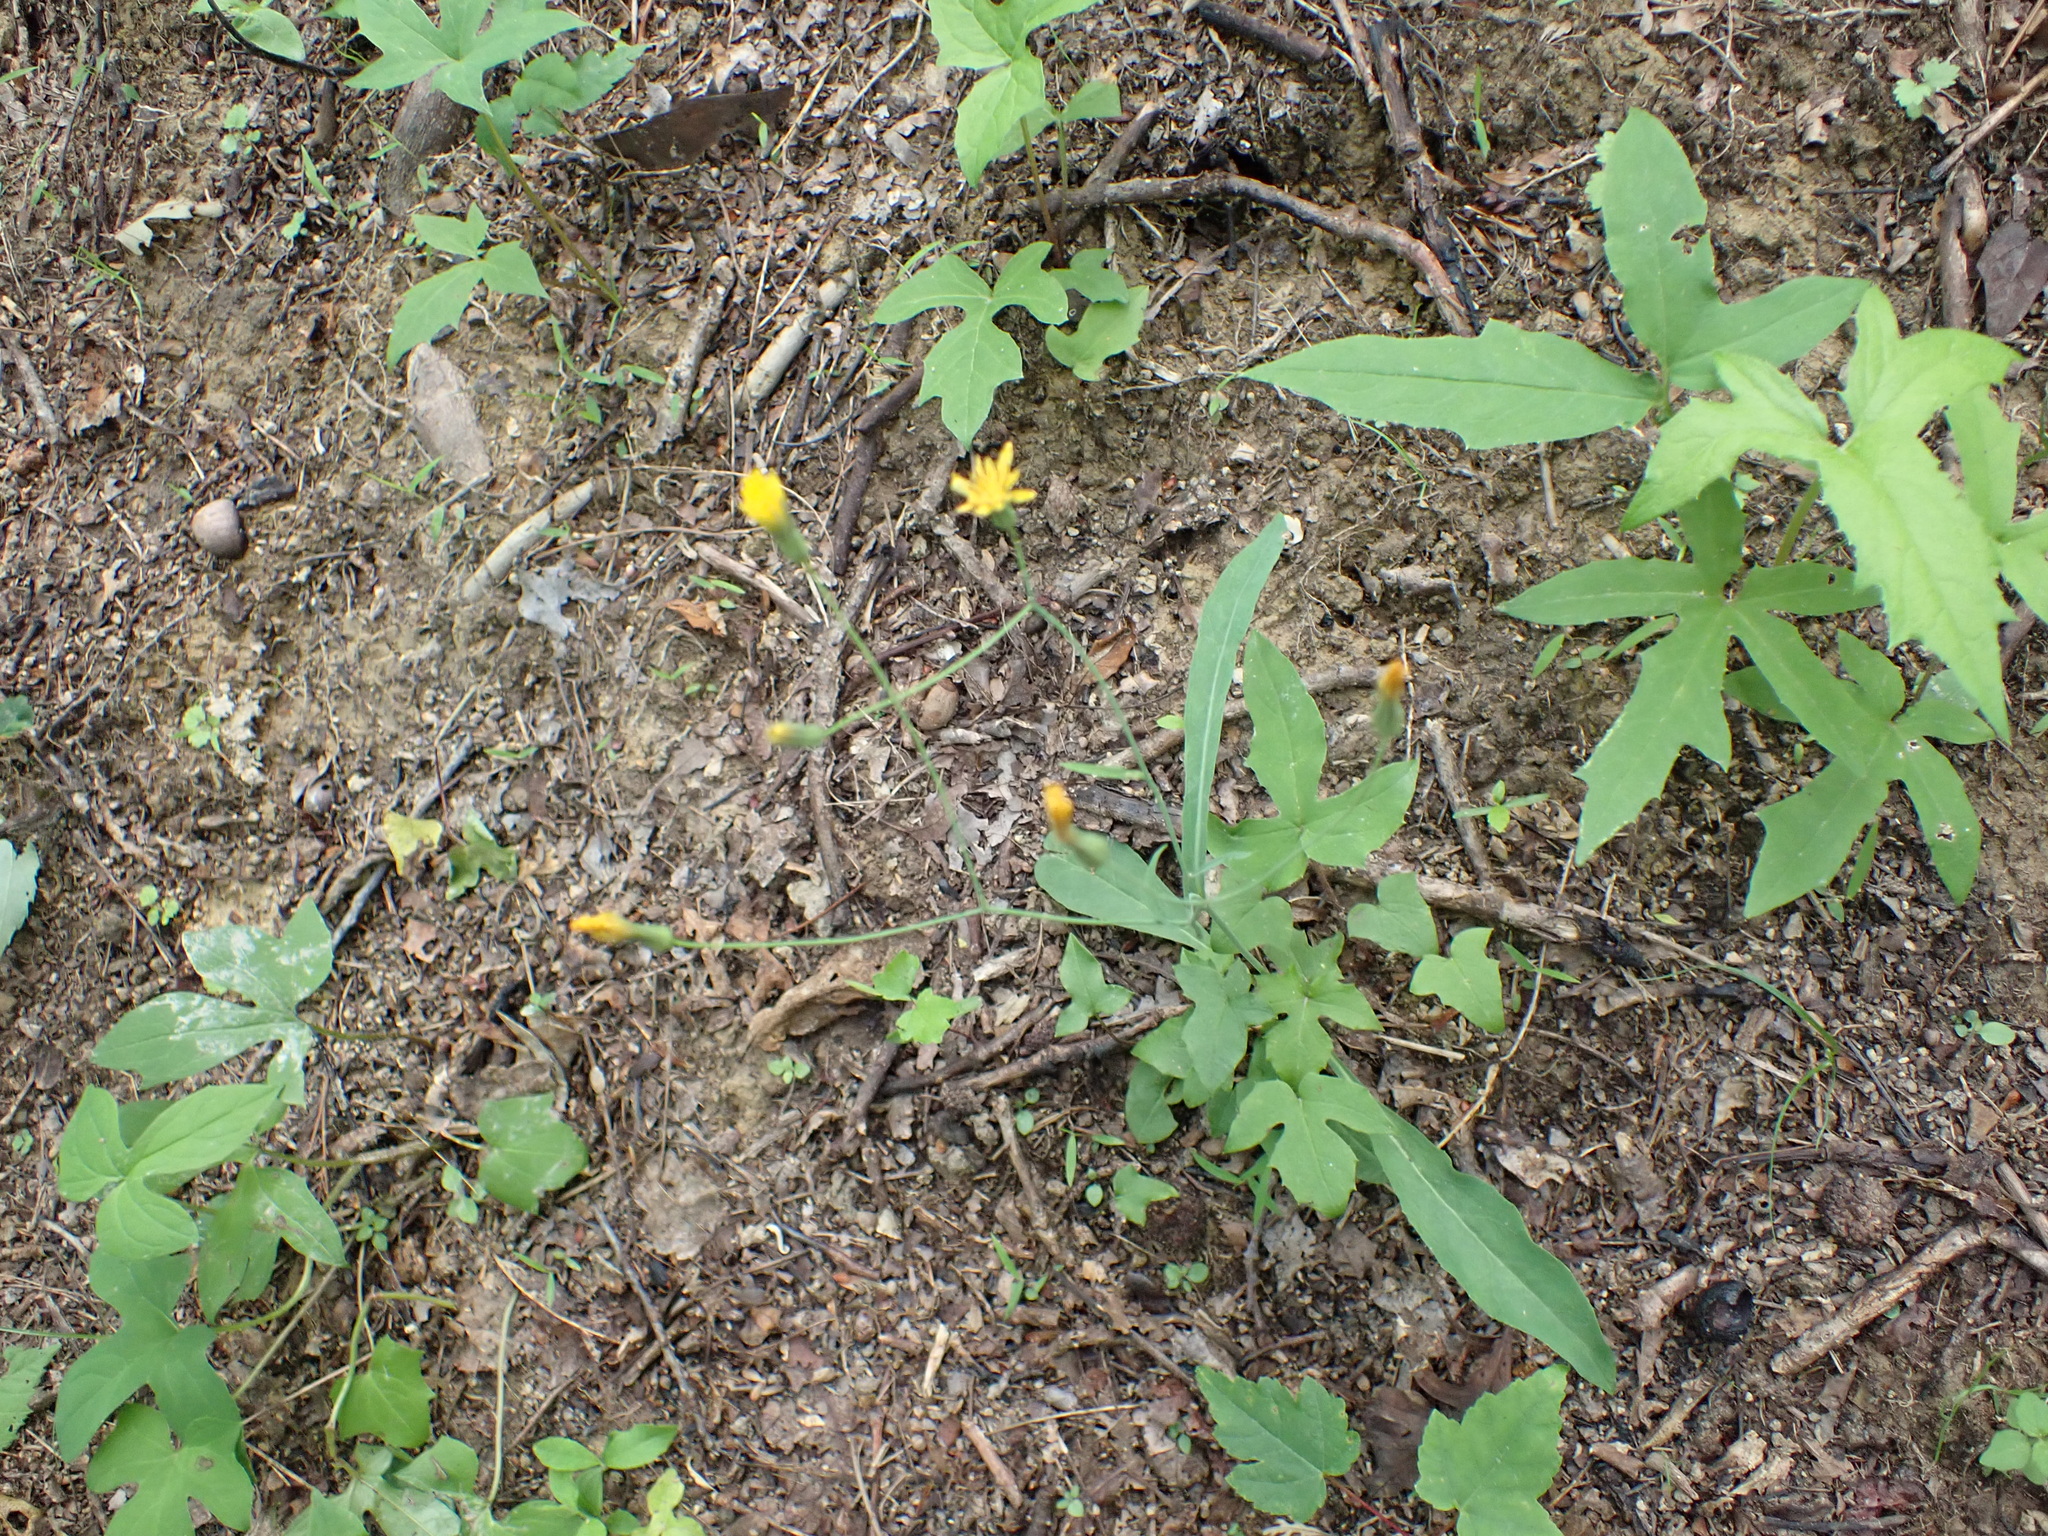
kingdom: Plantae
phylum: Tracheophyta
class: Magnoliopsida
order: Asterales
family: Asteraceae
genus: Krigia
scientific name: Krigia biflora
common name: Orange dwarf-dandelion
